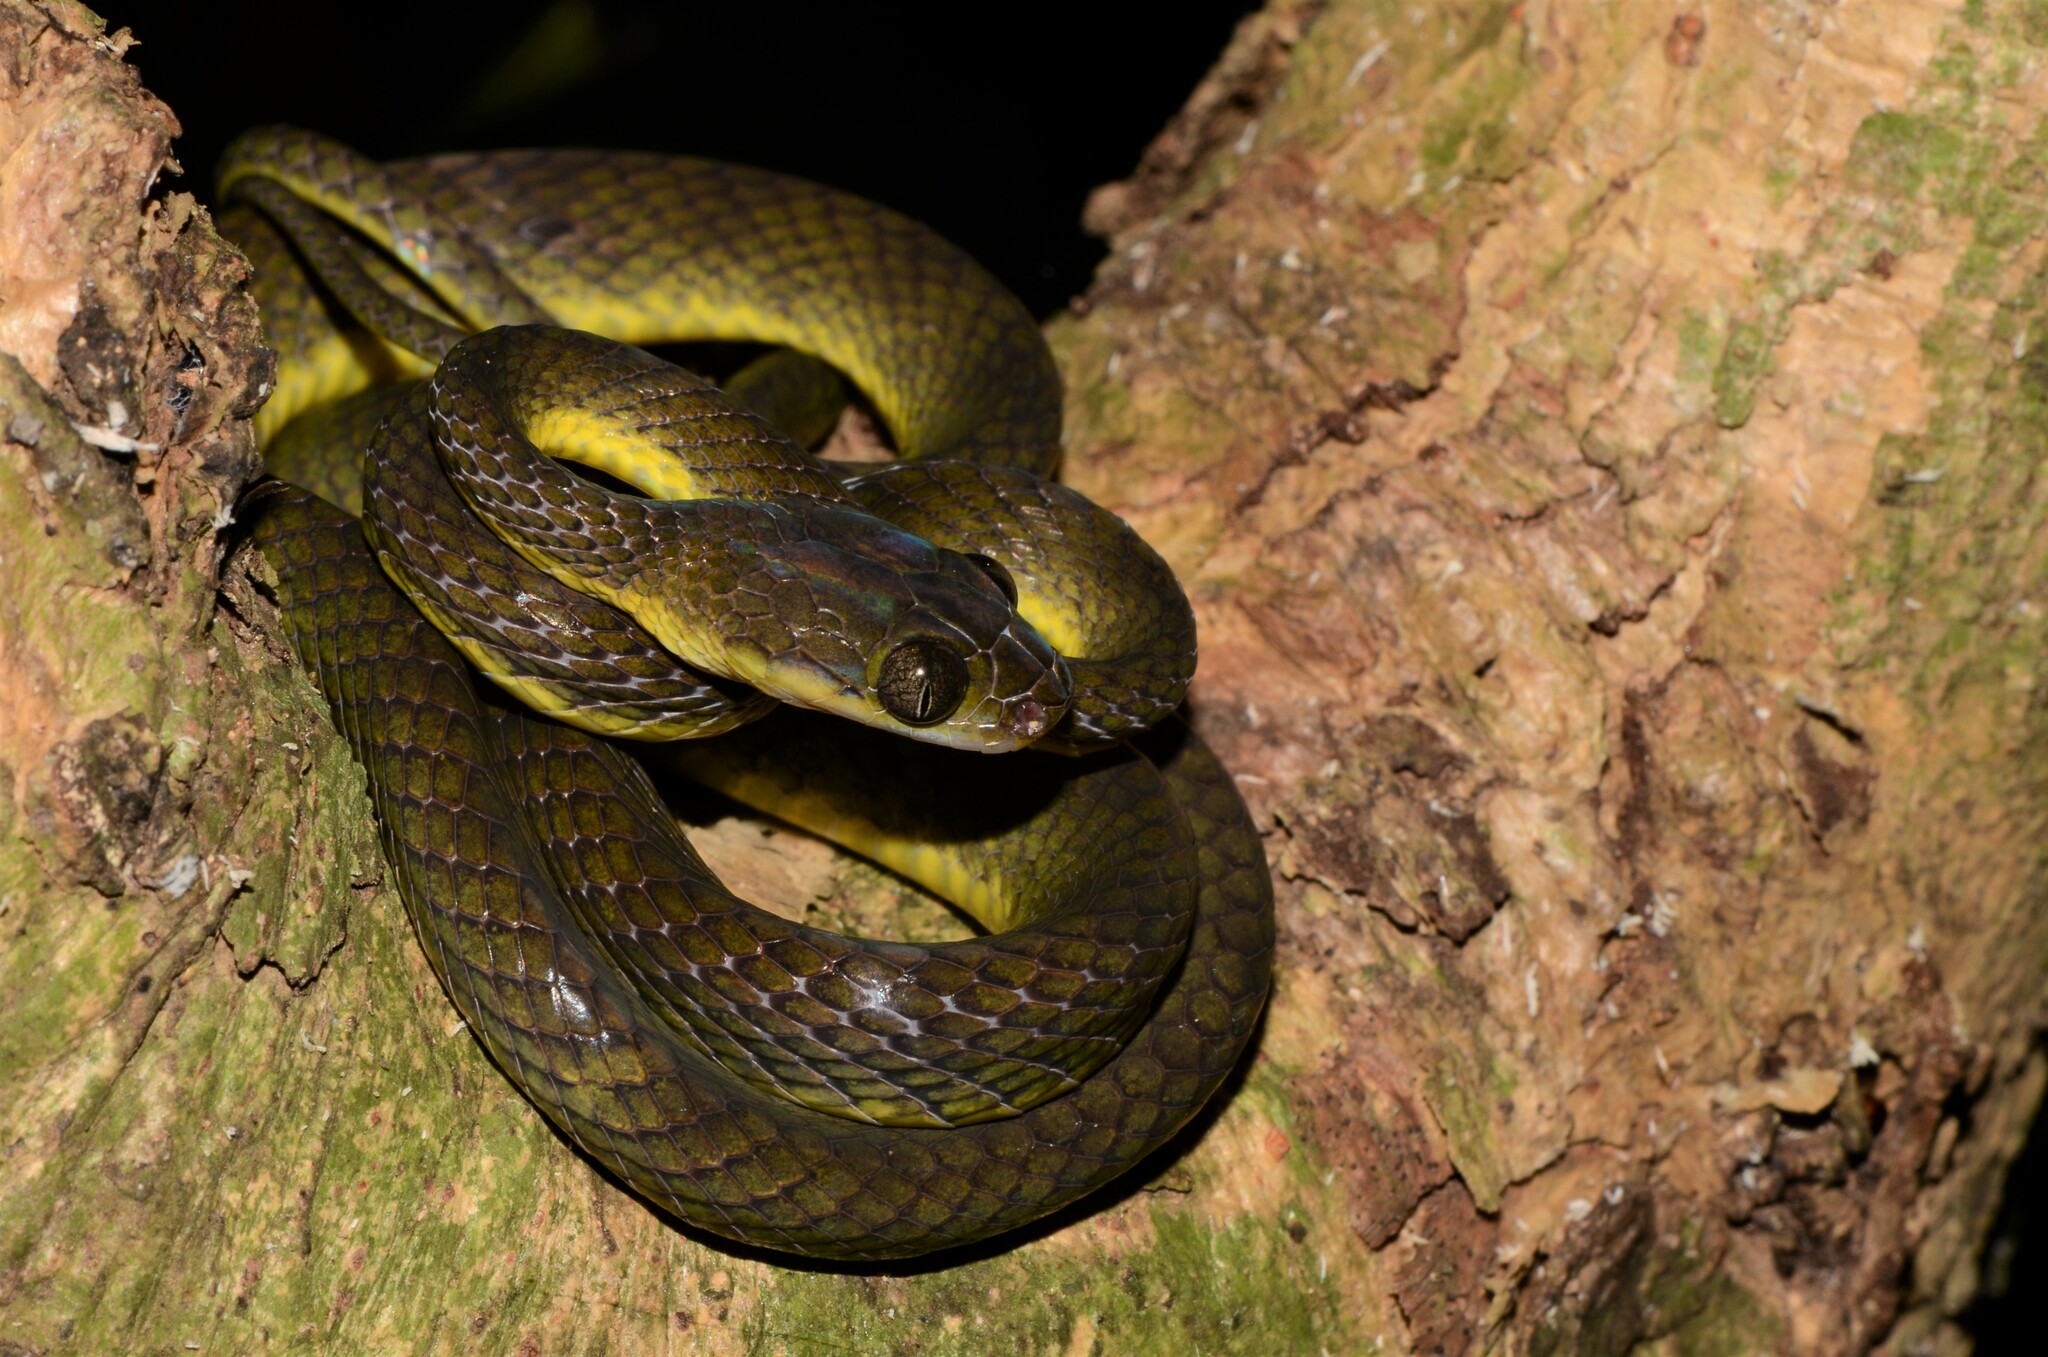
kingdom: Animalia
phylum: Chordata
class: Squamata
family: Colubridae
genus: Dipsadoboa
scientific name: Dipsadoboa underwoodi
